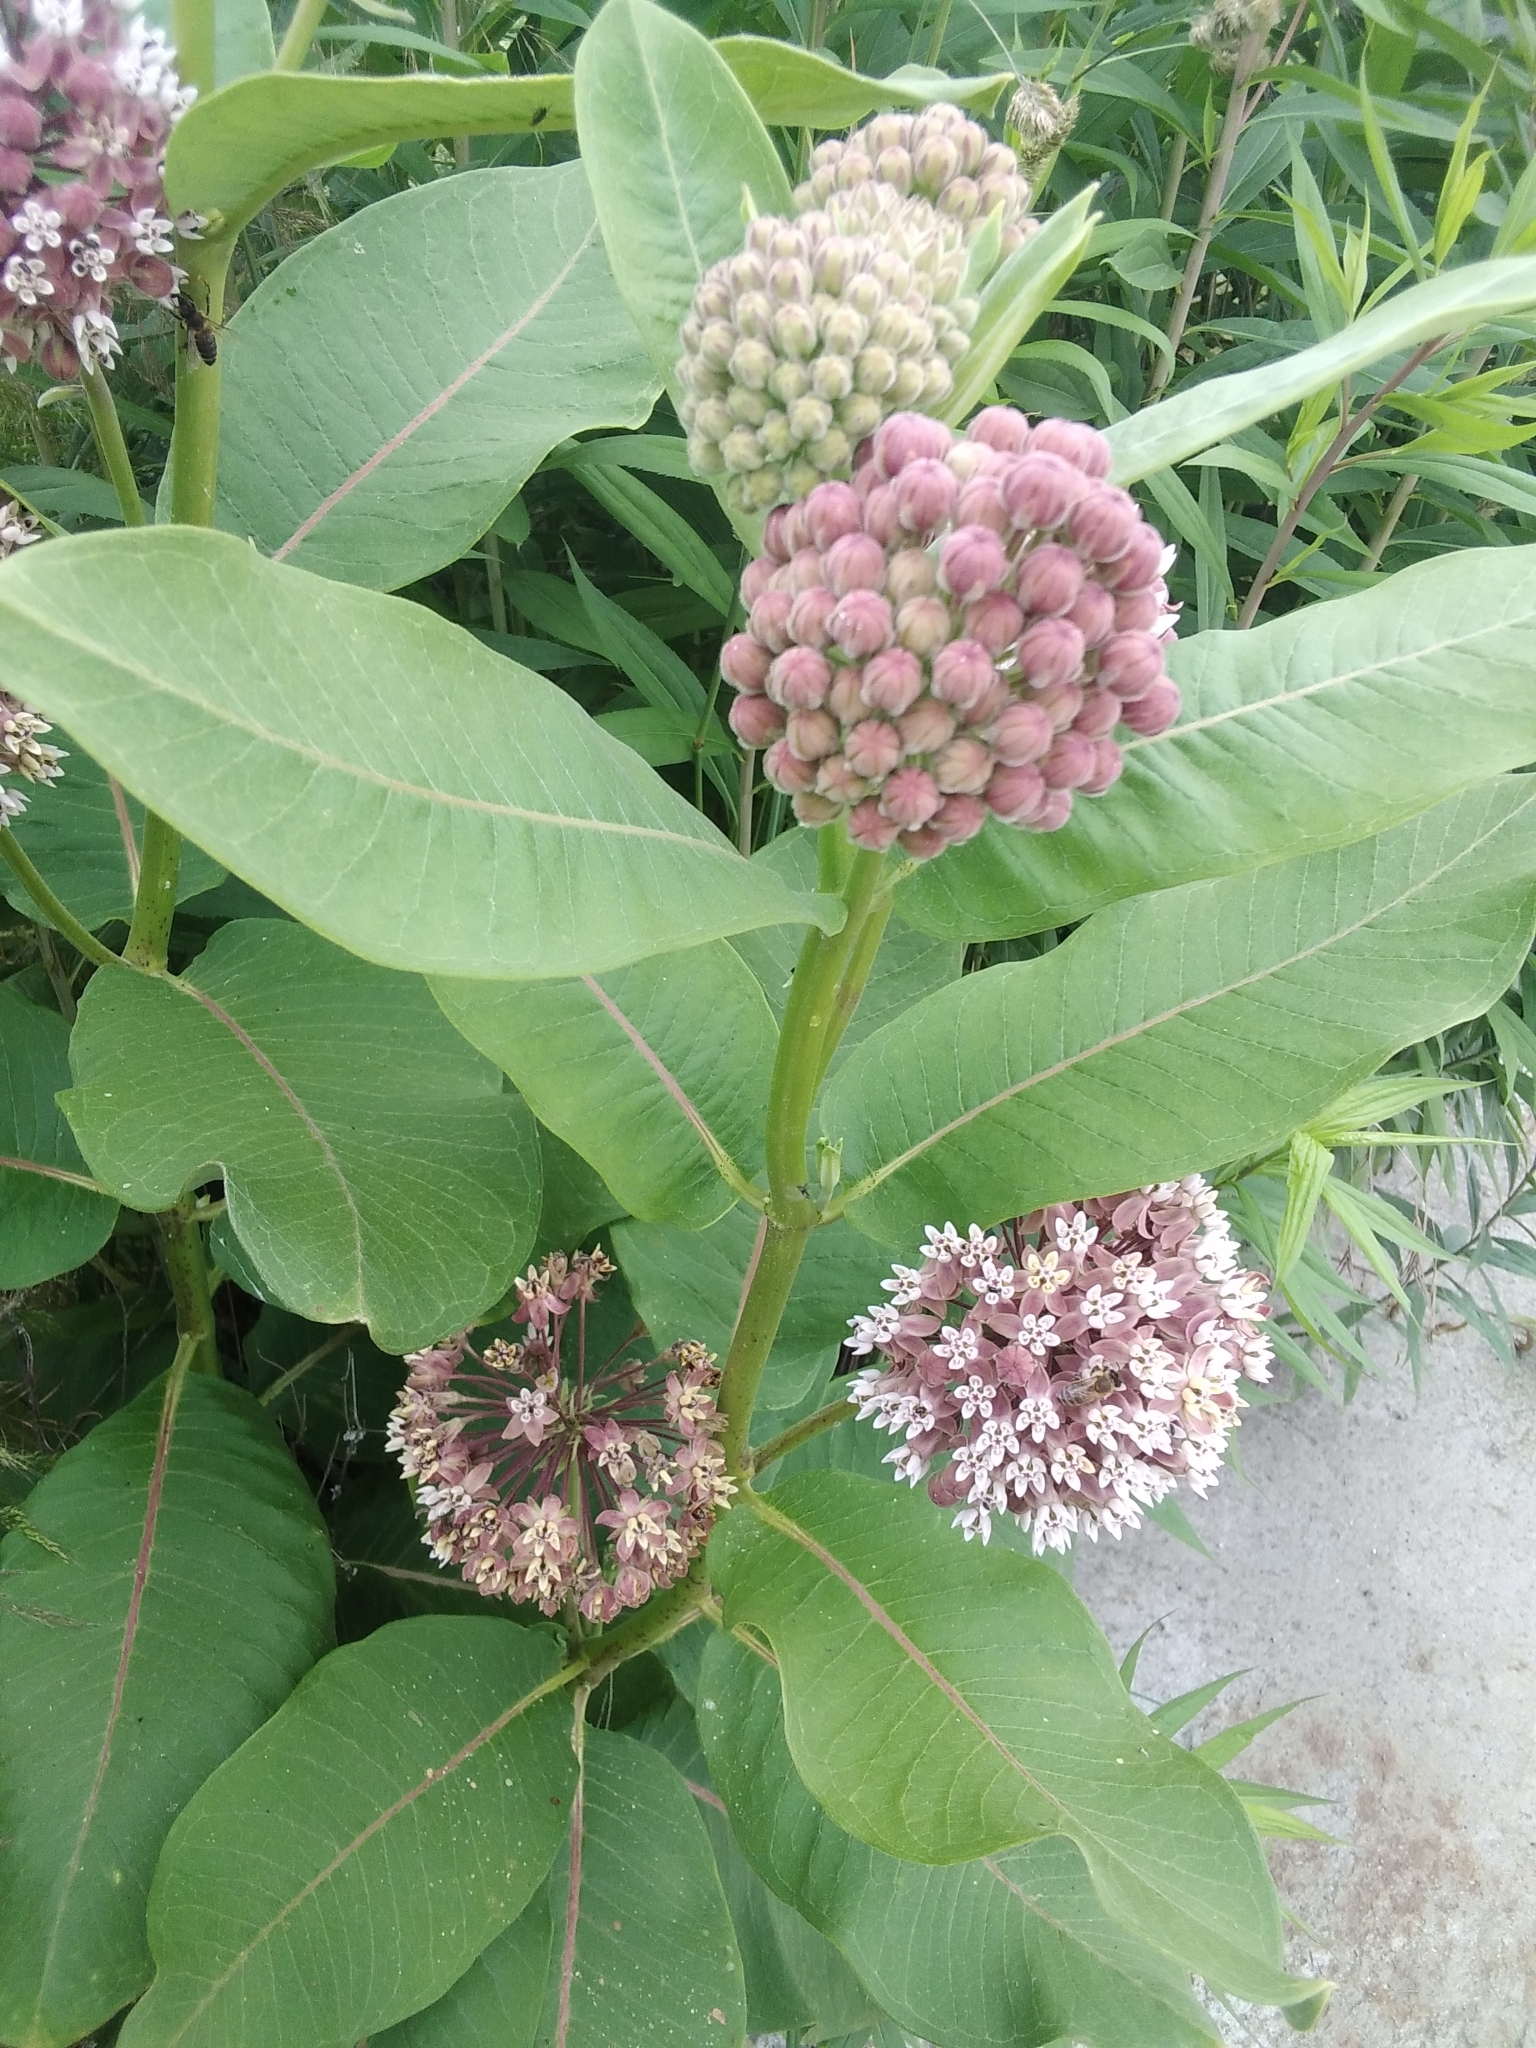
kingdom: Plantae
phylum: Tracheophyta
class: Magnoliopsida
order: Gentianales
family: Apocynaceae
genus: Asclepias
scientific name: Asclepias syriaca
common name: Common milkweed
